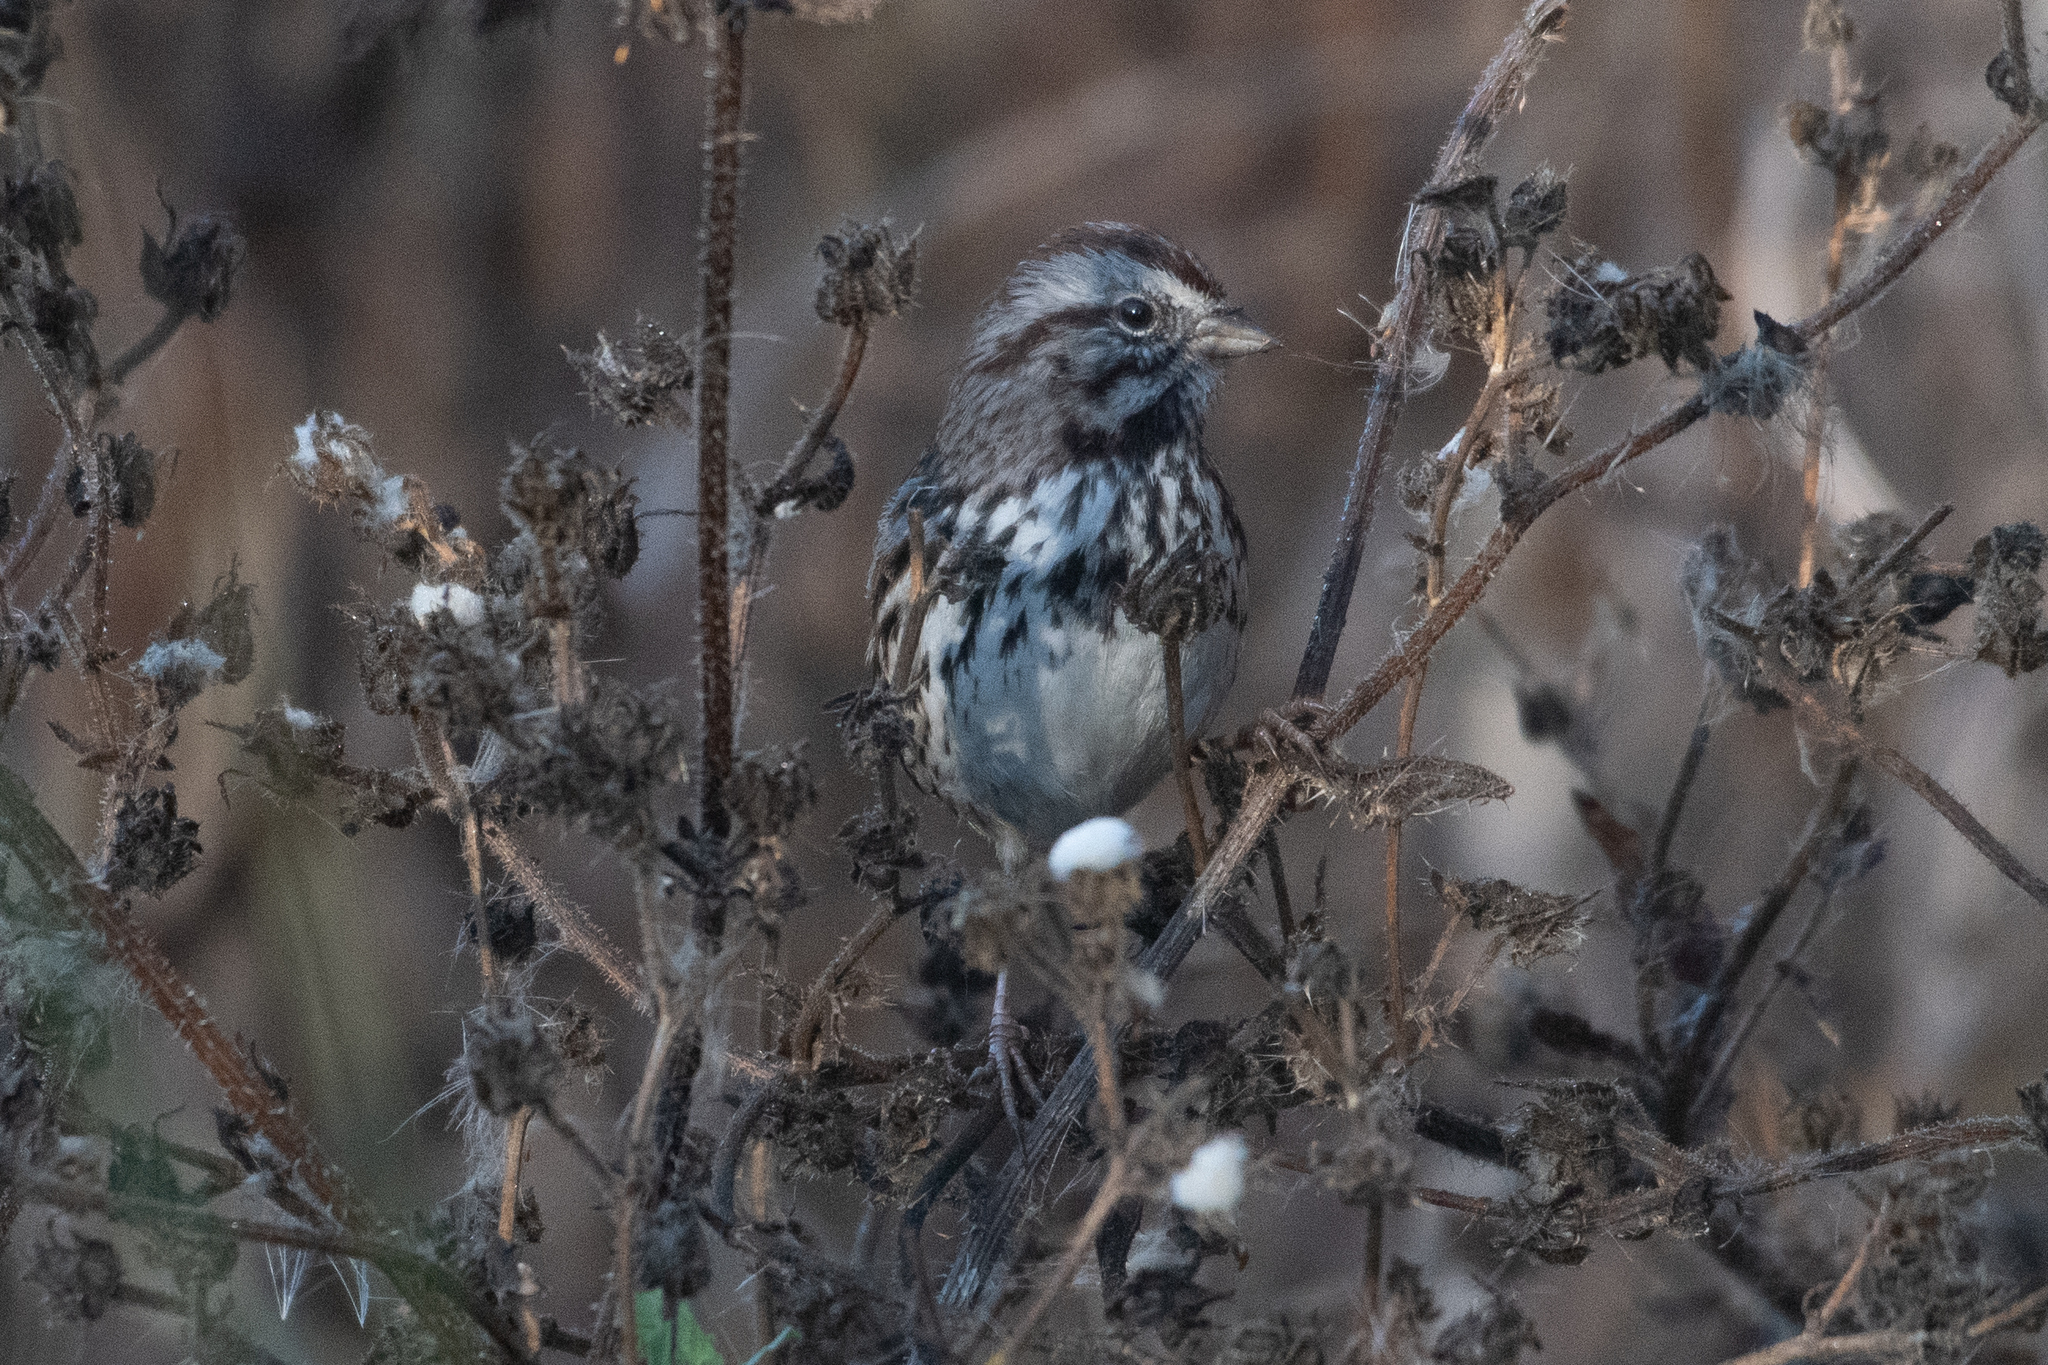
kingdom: Animalia
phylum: Chordata
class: Aves
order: Passeriformes
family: Passerellidae
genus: Melospiza
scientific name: Melospiza melodia
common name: Song sparrow
